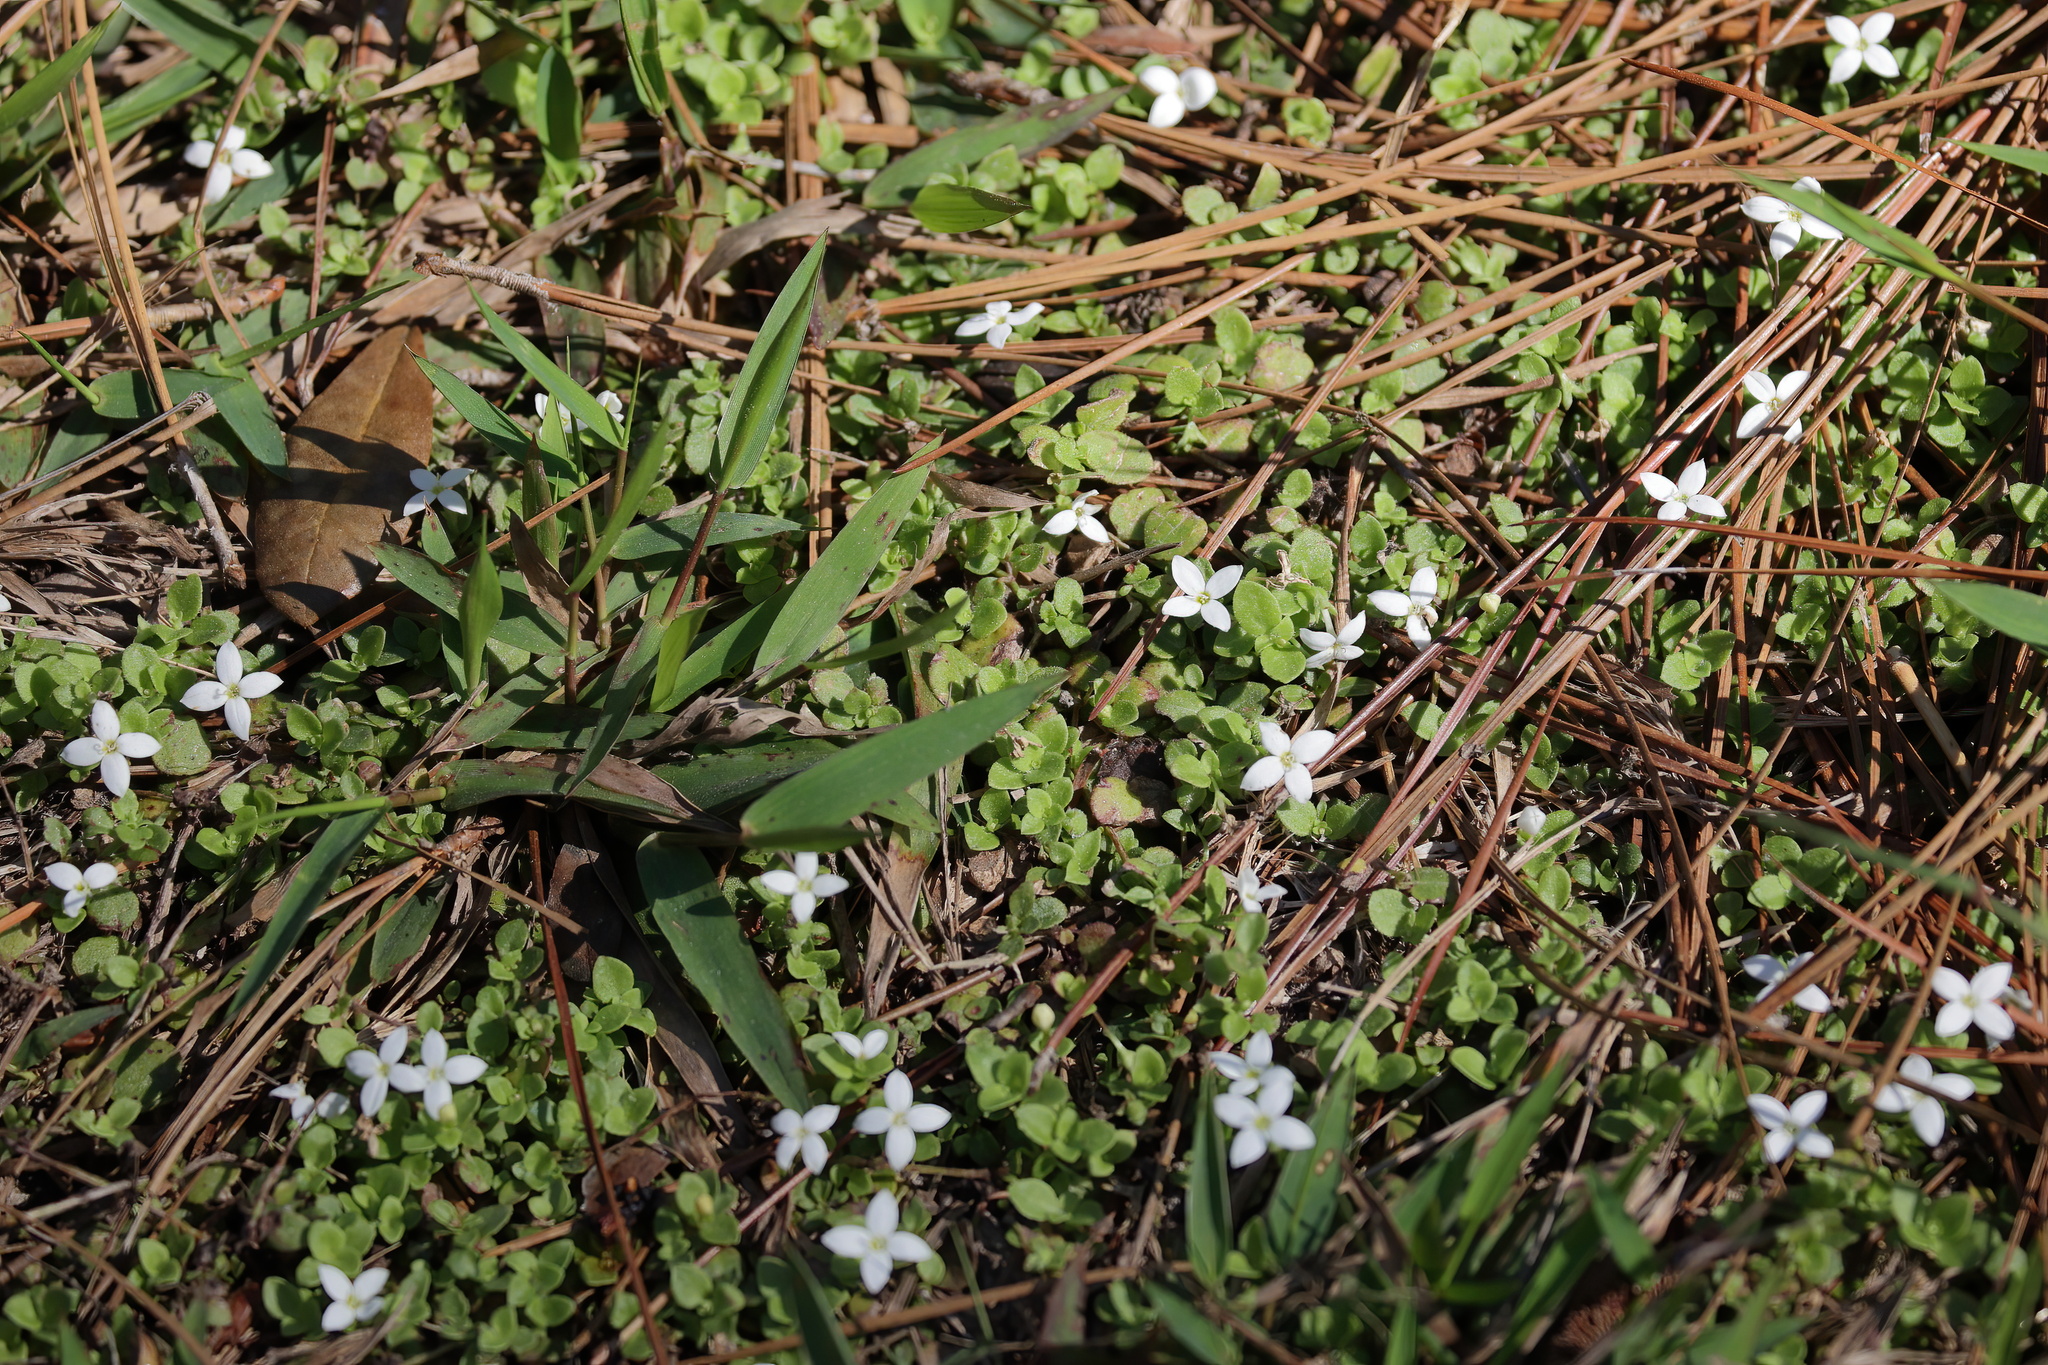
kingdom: Plantae
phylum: Tracheophyta
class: Magnoliopsida
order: Gentianales
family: Rubiaceae
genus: Houstonia
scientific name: Houstonia procumbens
